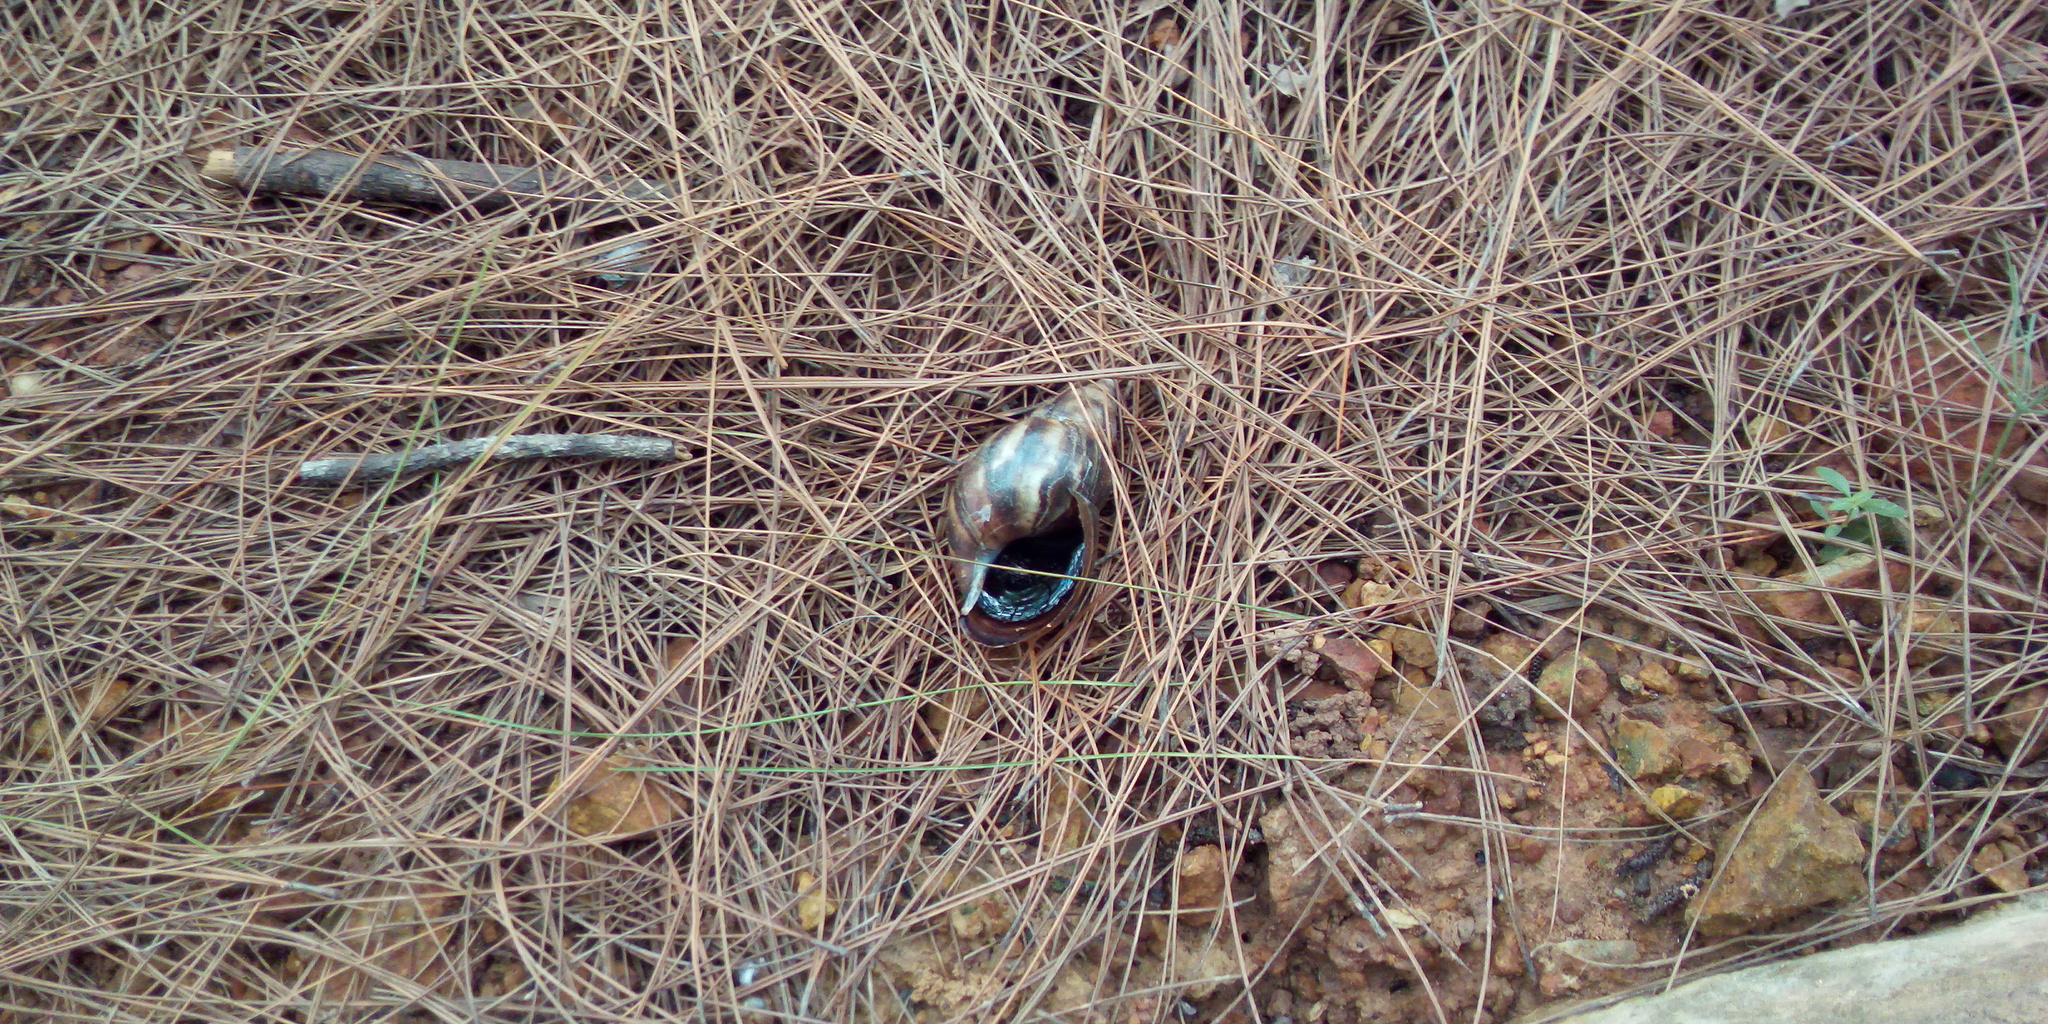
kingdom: Animalia
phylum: Mollusca
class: Gastropoda
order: Stylommatophora
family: Achatinidae
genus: Lissachatina
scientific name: Lissachatina fulica
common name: Giant african snail
